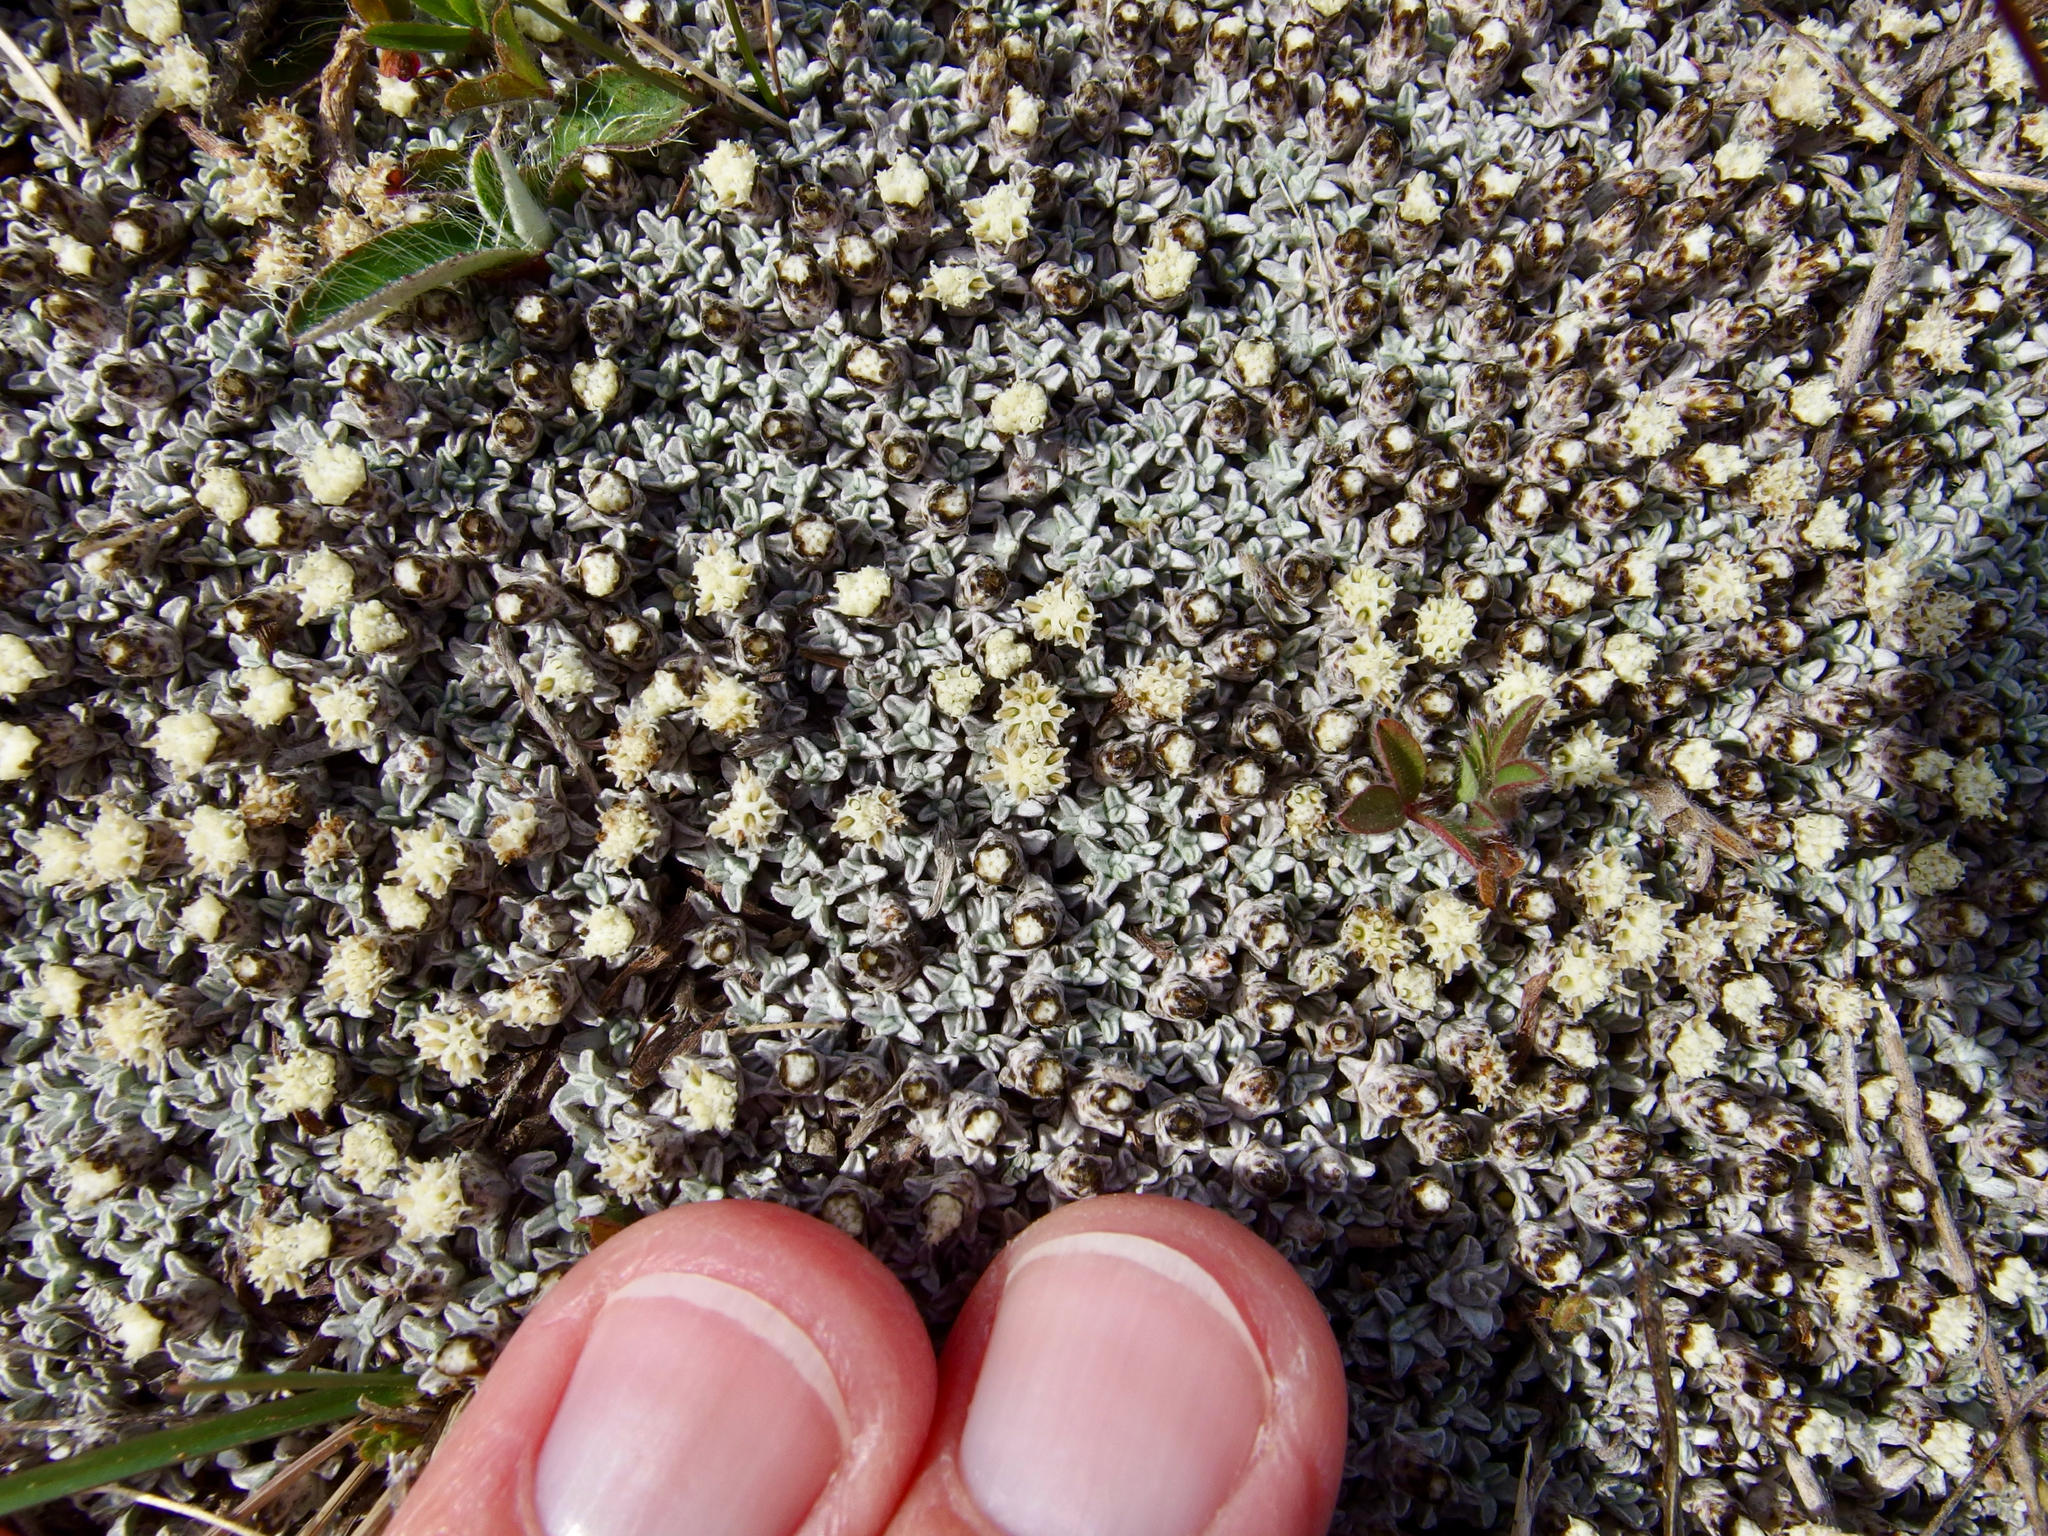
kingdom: Plantae
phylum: Tracheophyta
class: Magnoliopsida
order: Asterales
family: Asteraceae
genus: Haastia
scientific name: Haastia sinclairii
